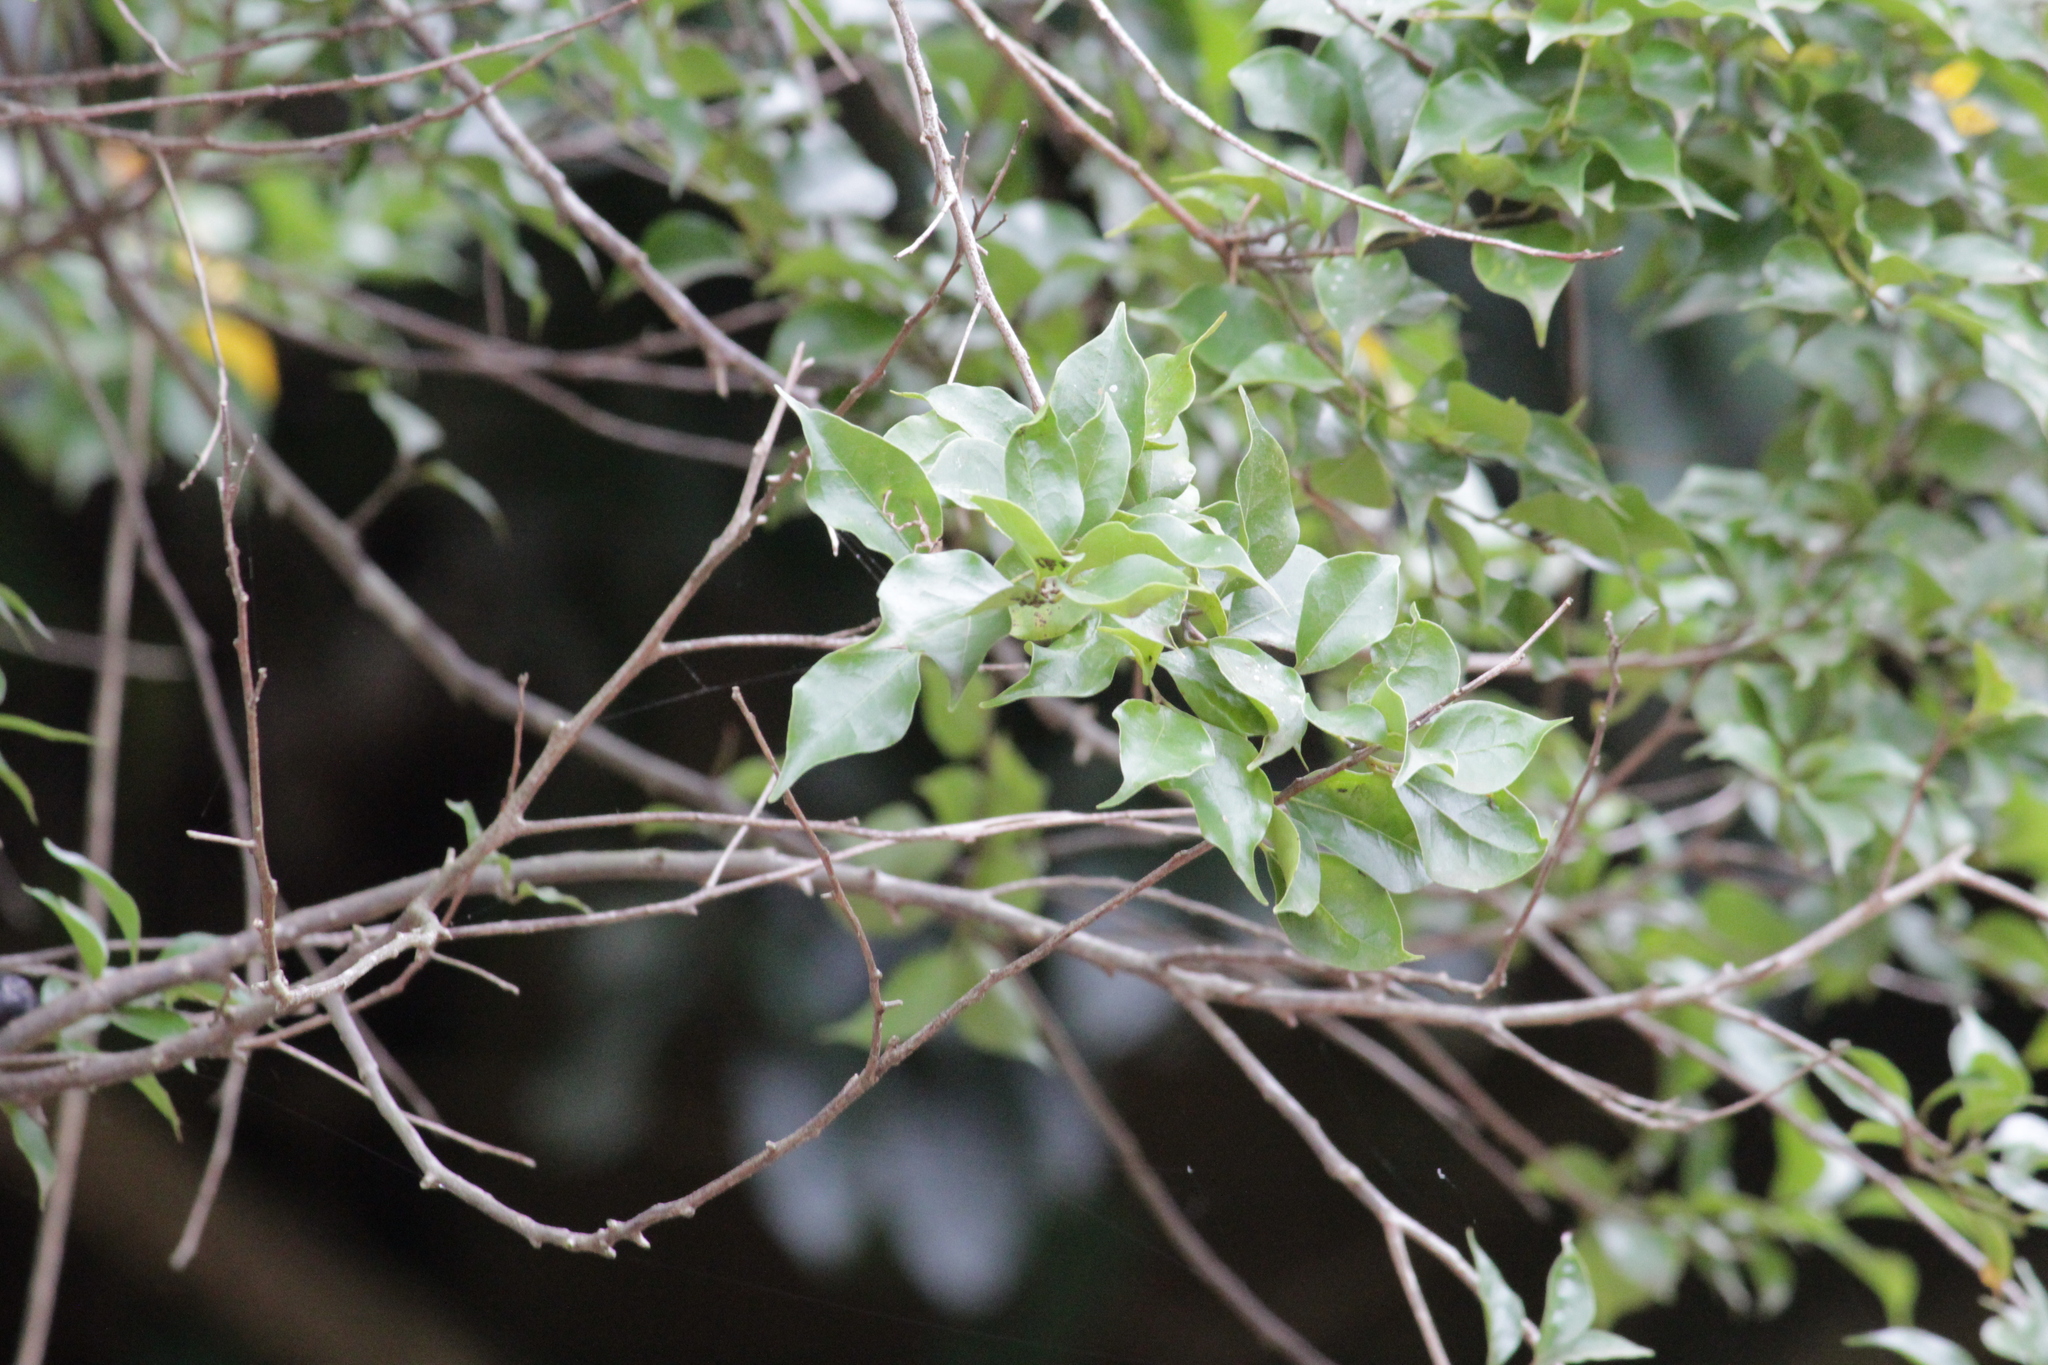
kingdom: Plantae
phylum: Tracheophyta
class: Magnoliopsida
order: Laurales
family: Lauraceae
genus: Cryptocarya
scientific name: Cryptocarya woodii
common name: Bastard camphor tree
